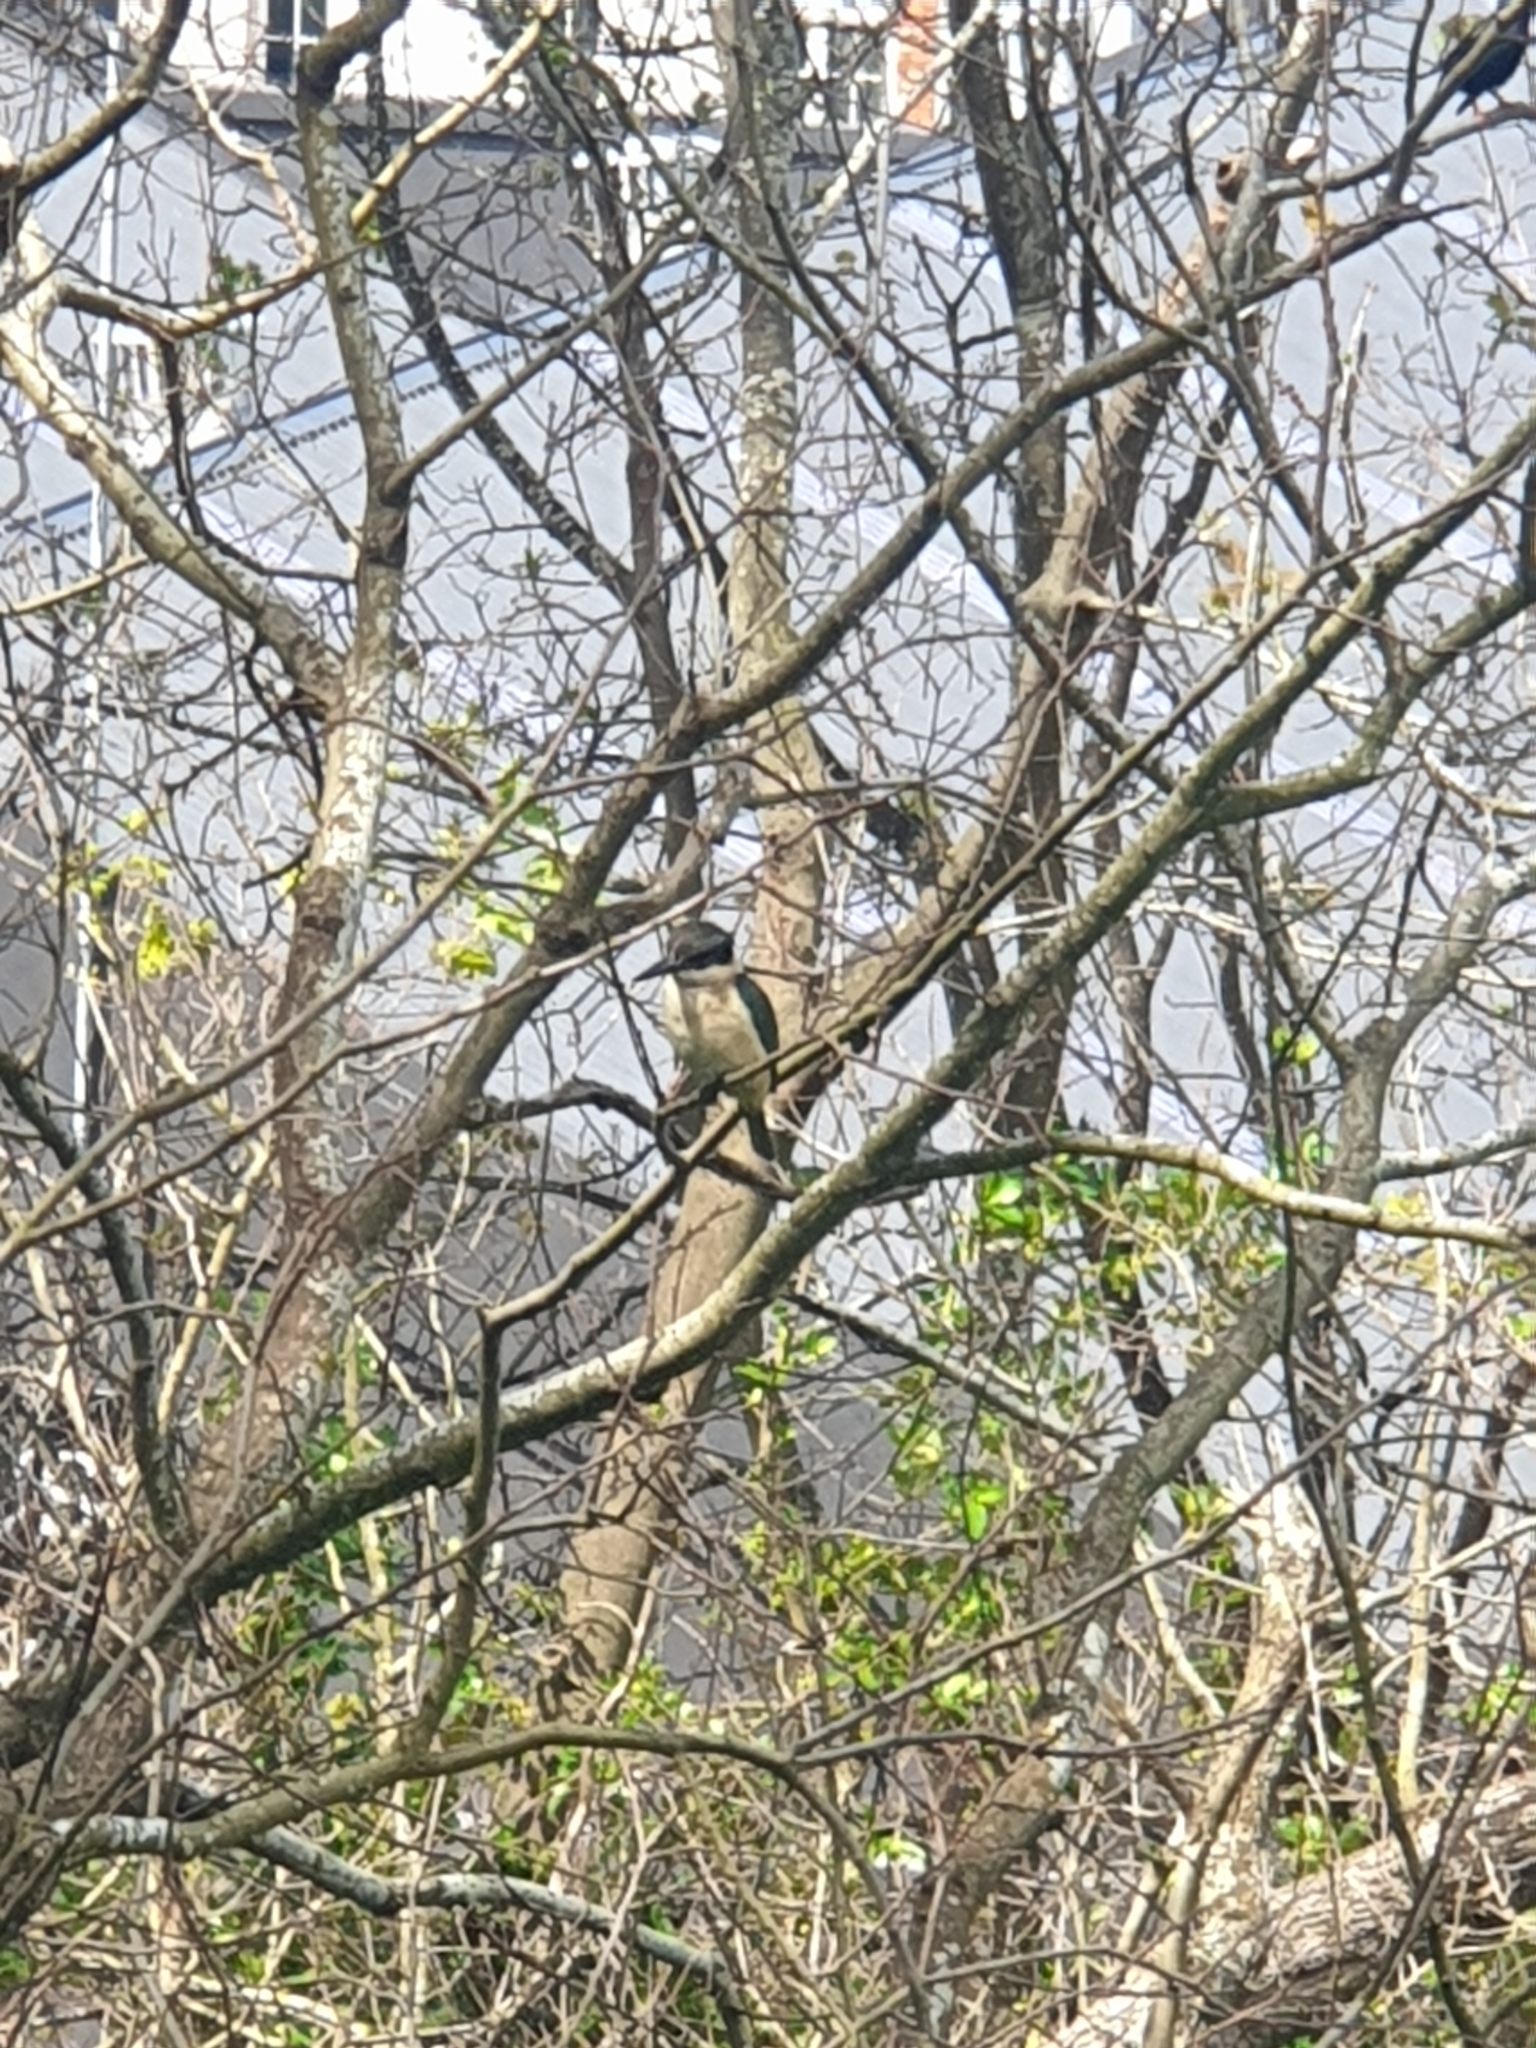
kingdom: Animalia
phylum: Chordata
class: Aves
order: Coraciiformes
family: Alcedinidae
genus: Todiramphus
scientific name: Todiramphus sanctus
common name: Sacred kingfisher
